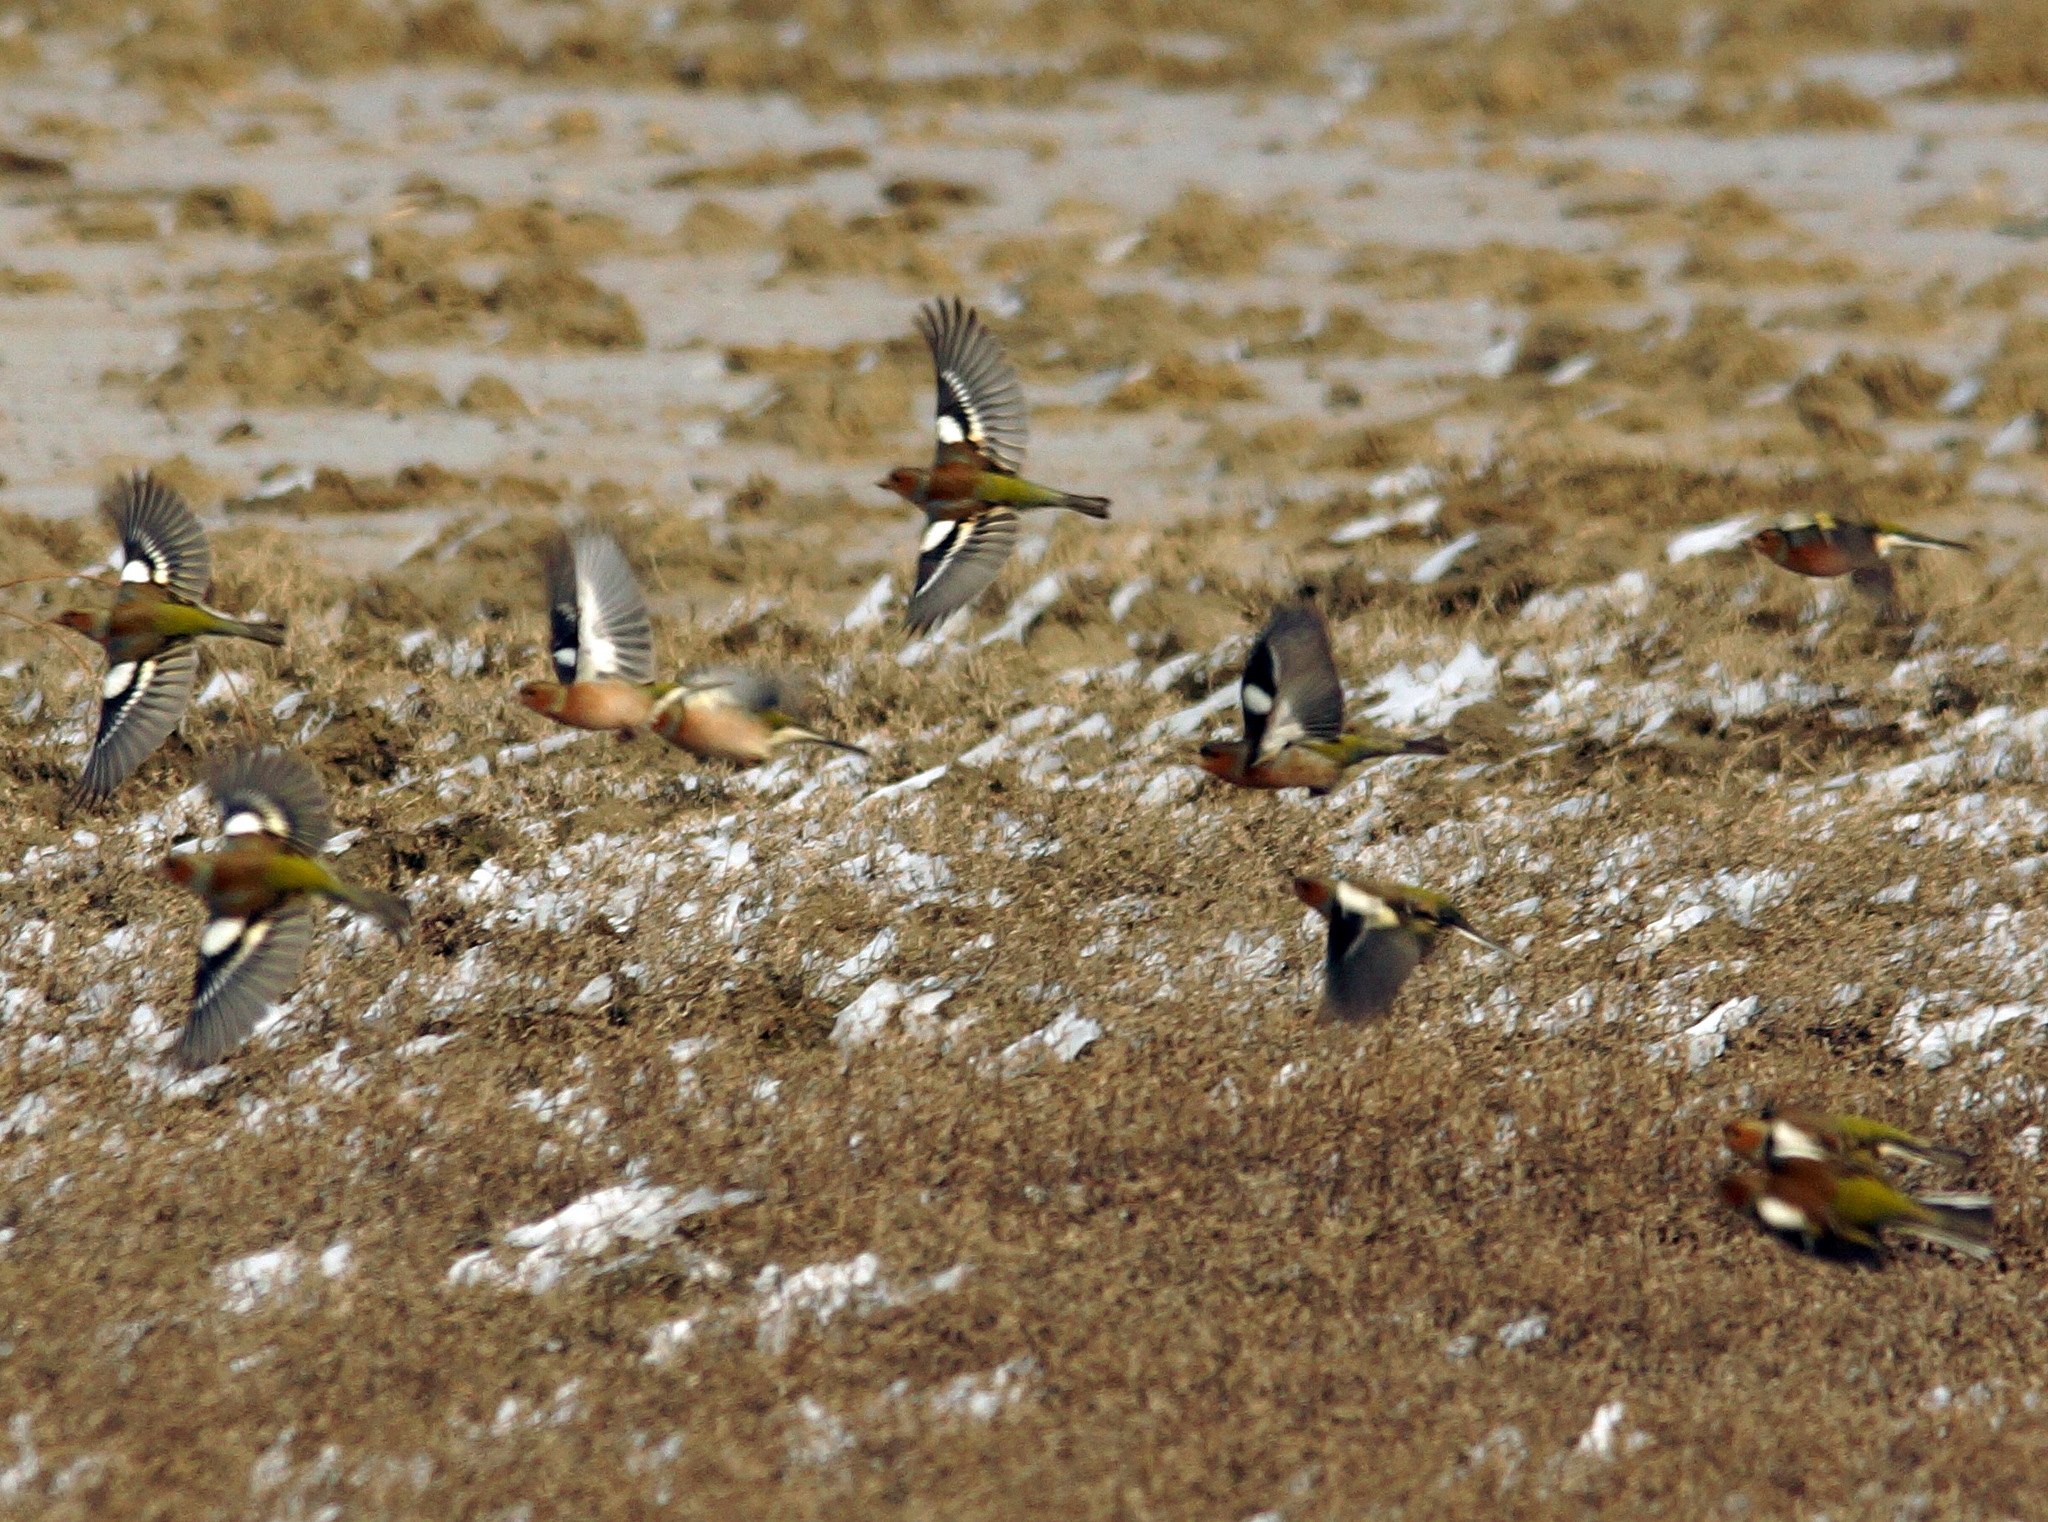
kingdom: Animalia
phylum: Chordata
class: Aves
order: Passeriformes
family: Fringillidae
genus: Fringilla
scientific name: Fringilla coelebs
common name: Common chaffinch
